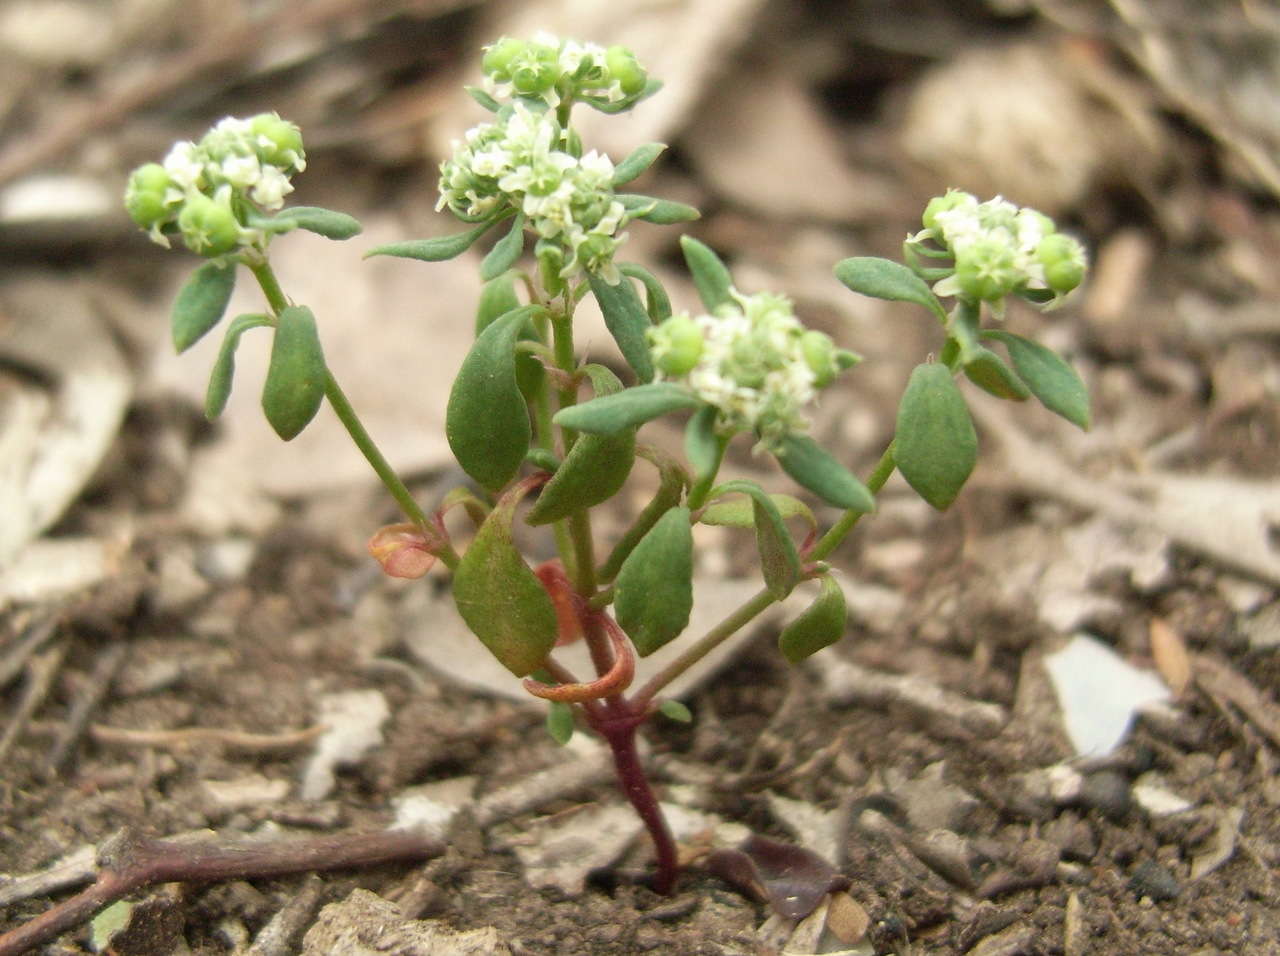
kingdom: Plantae
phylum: Tracheophyta
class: Magnoliopsida
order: Malpighiales
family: Phyllanthaceae
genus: Poranthera
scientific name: Poranthera microphylla
